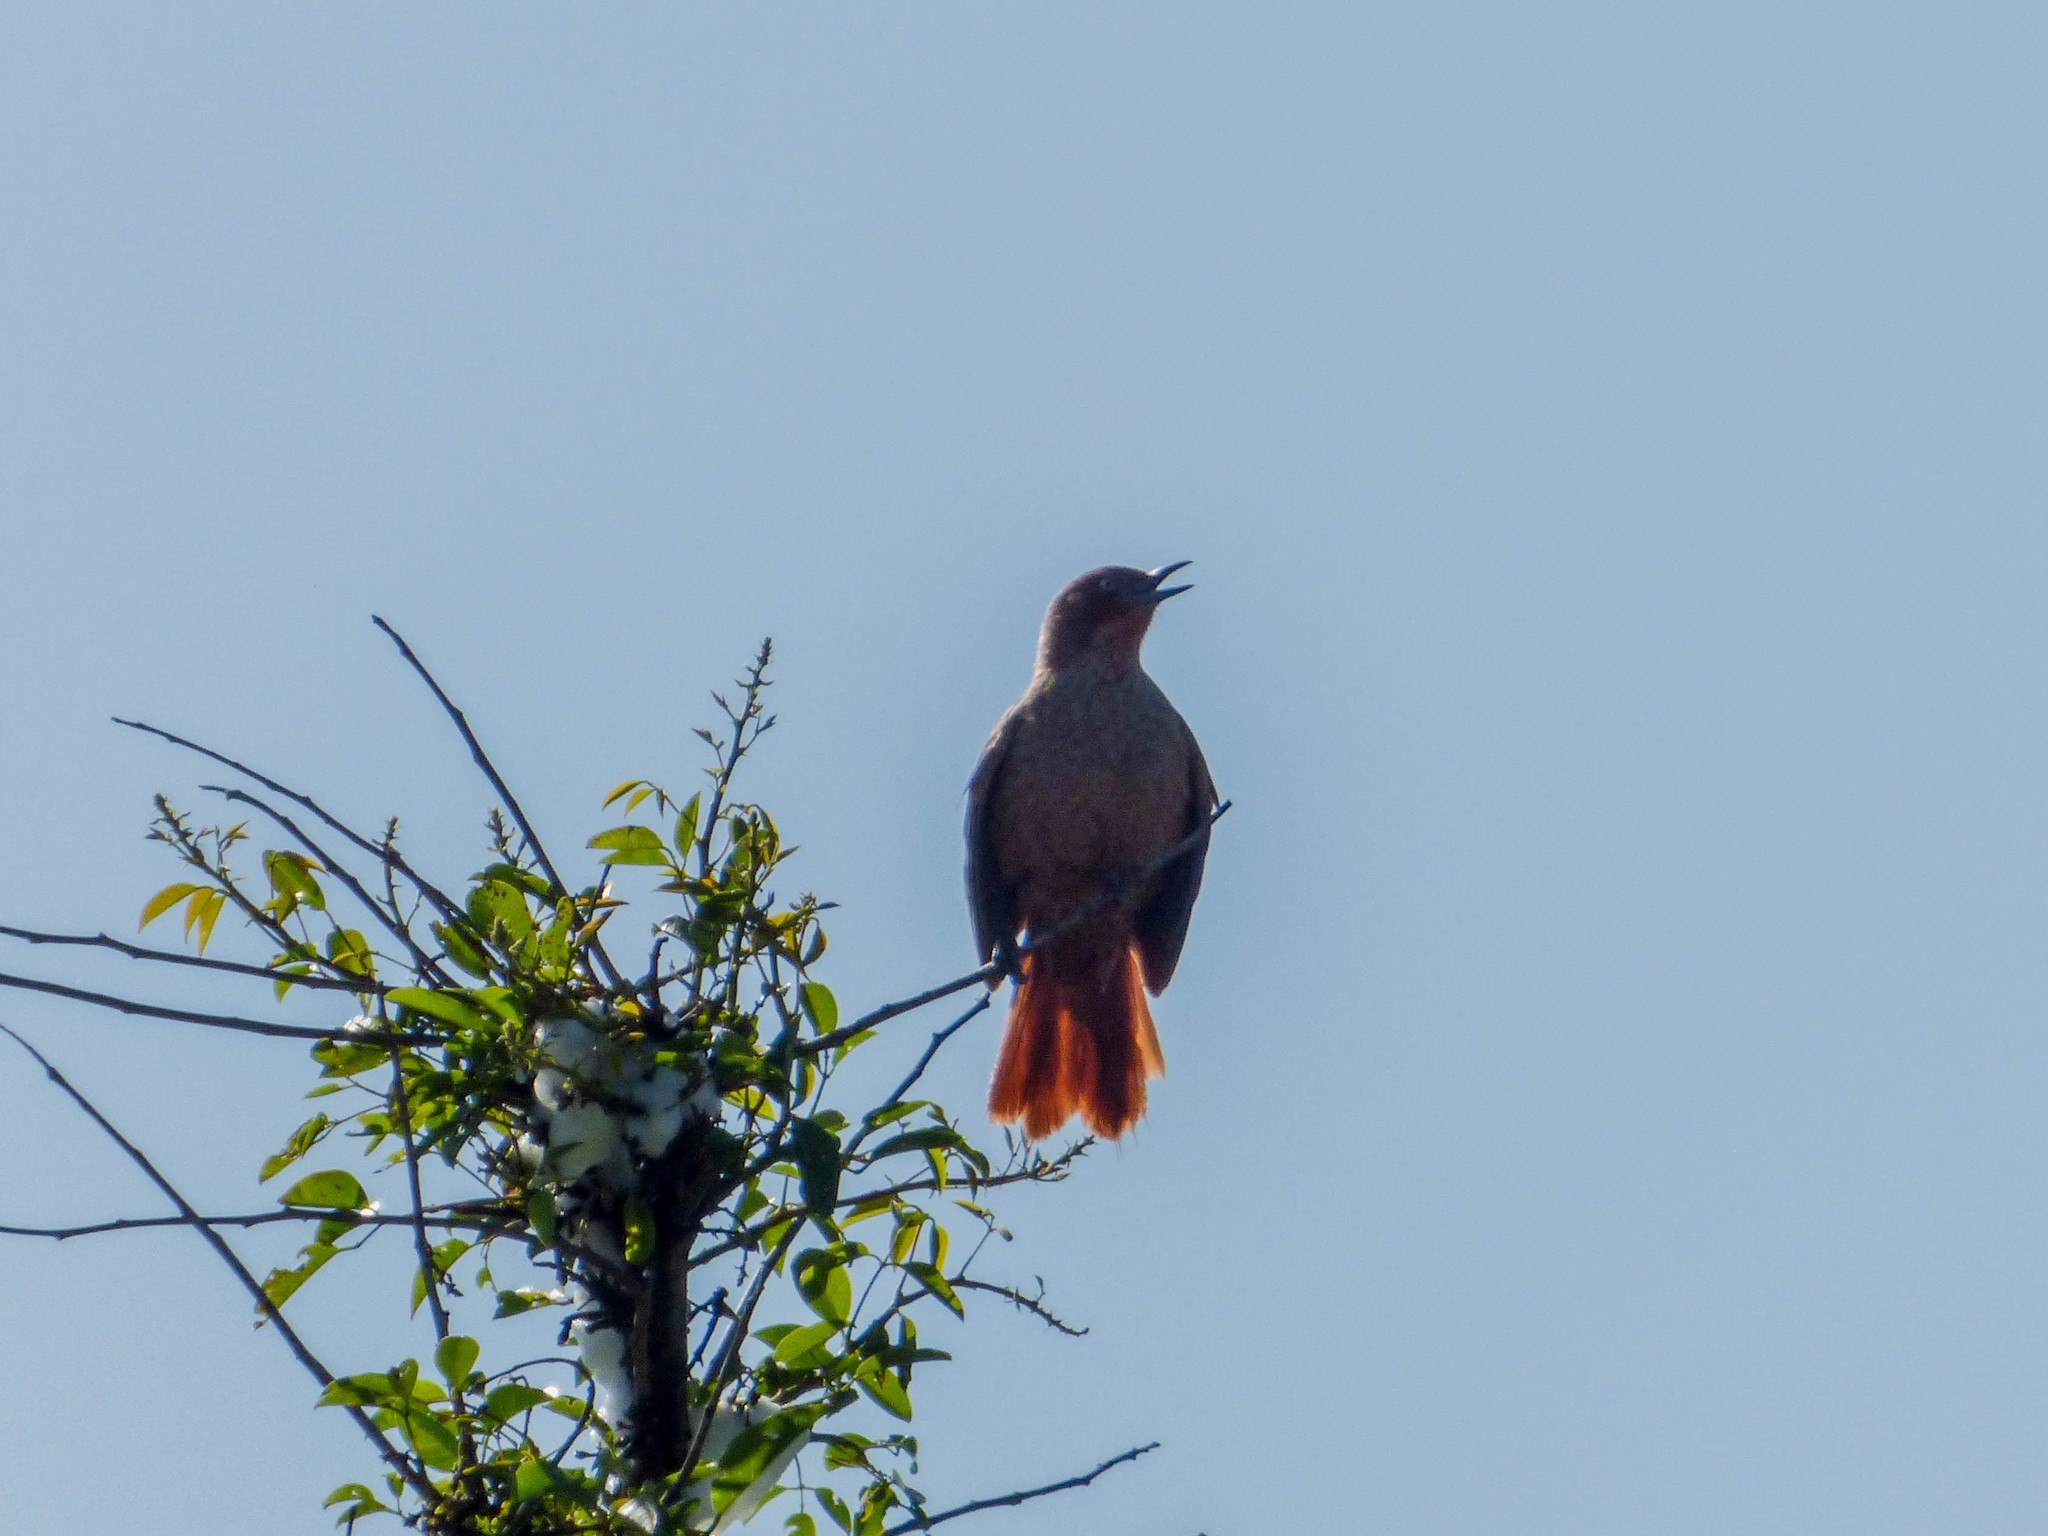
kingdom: Animalia
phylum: Chordata
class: Aves
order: Passeriformes
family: Furnariidae
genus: Pseudoseisura
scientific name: Pseudoseisura lophotes
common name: Brown cacholote
